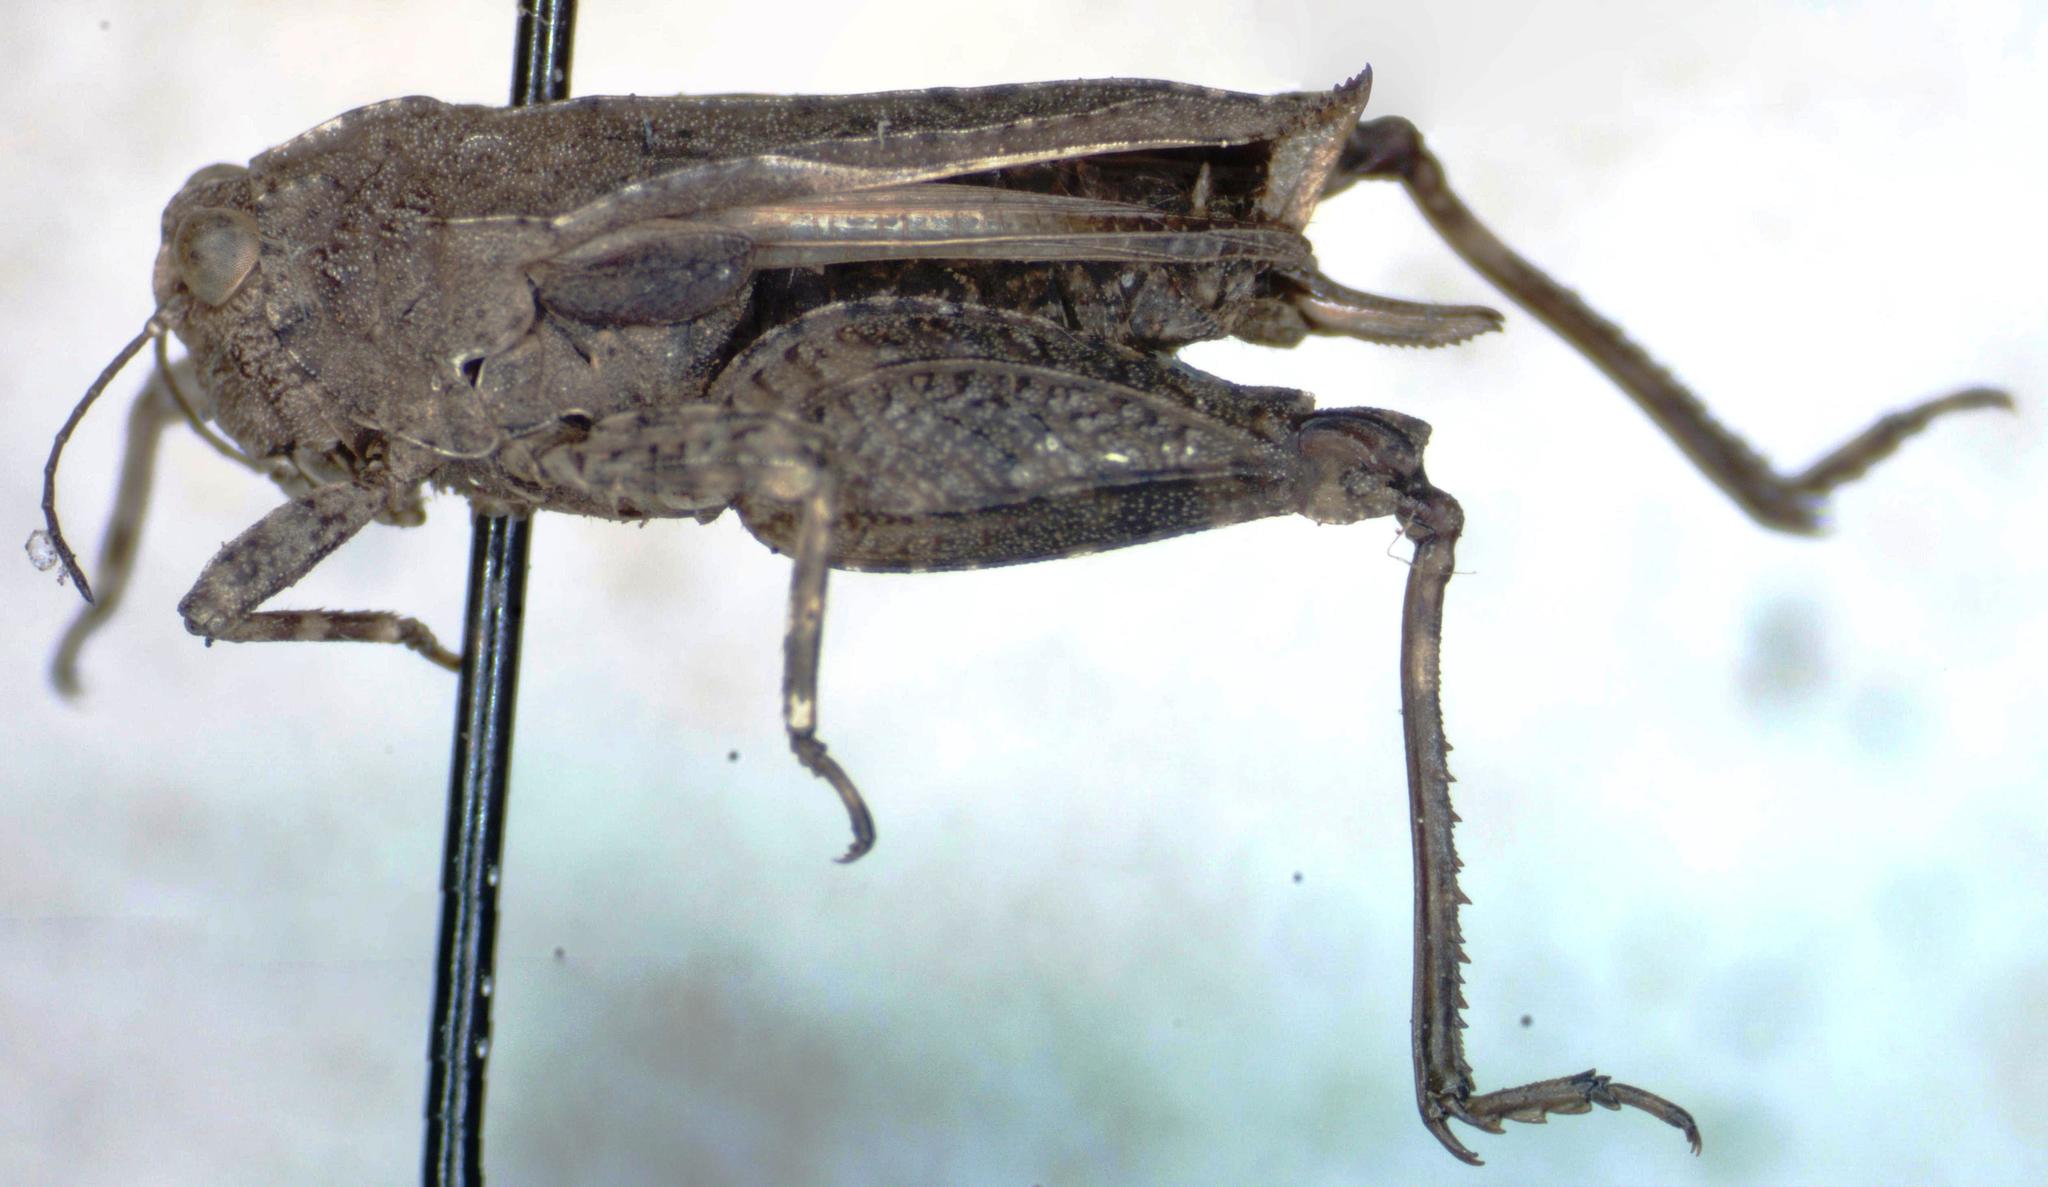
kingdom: Animalia
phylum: Arthropoda
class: Insecta
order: Orthoptera
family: Tetrigidae
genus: Paratettix
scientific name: Paratettix mexicanus
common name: Mexican pygmy grasshopper
